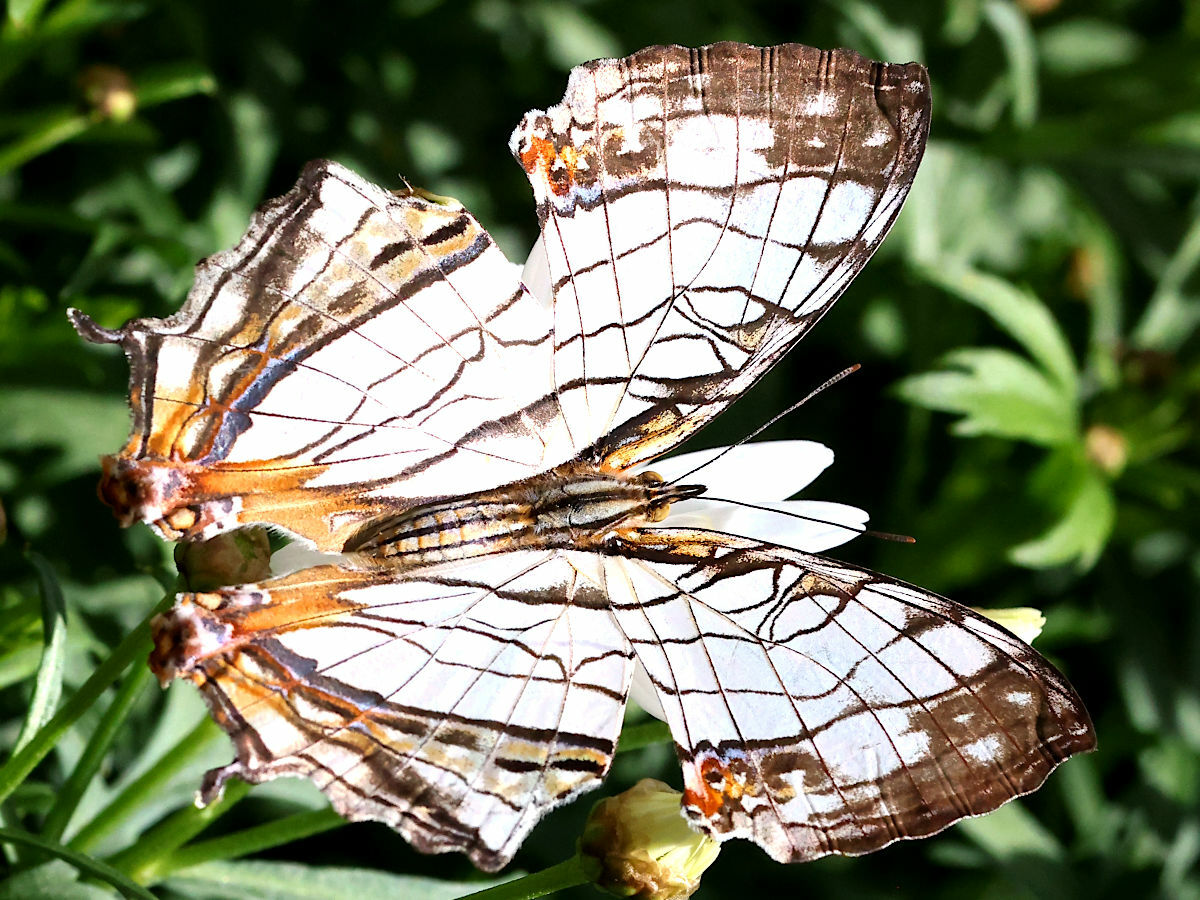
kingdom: Animalia
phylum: Arthropoda
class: Insecta
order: Lepidoptera
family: Nymphalidae
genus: Cyrestis
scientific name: Cyrestis thyodamas
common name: Common mapwing
